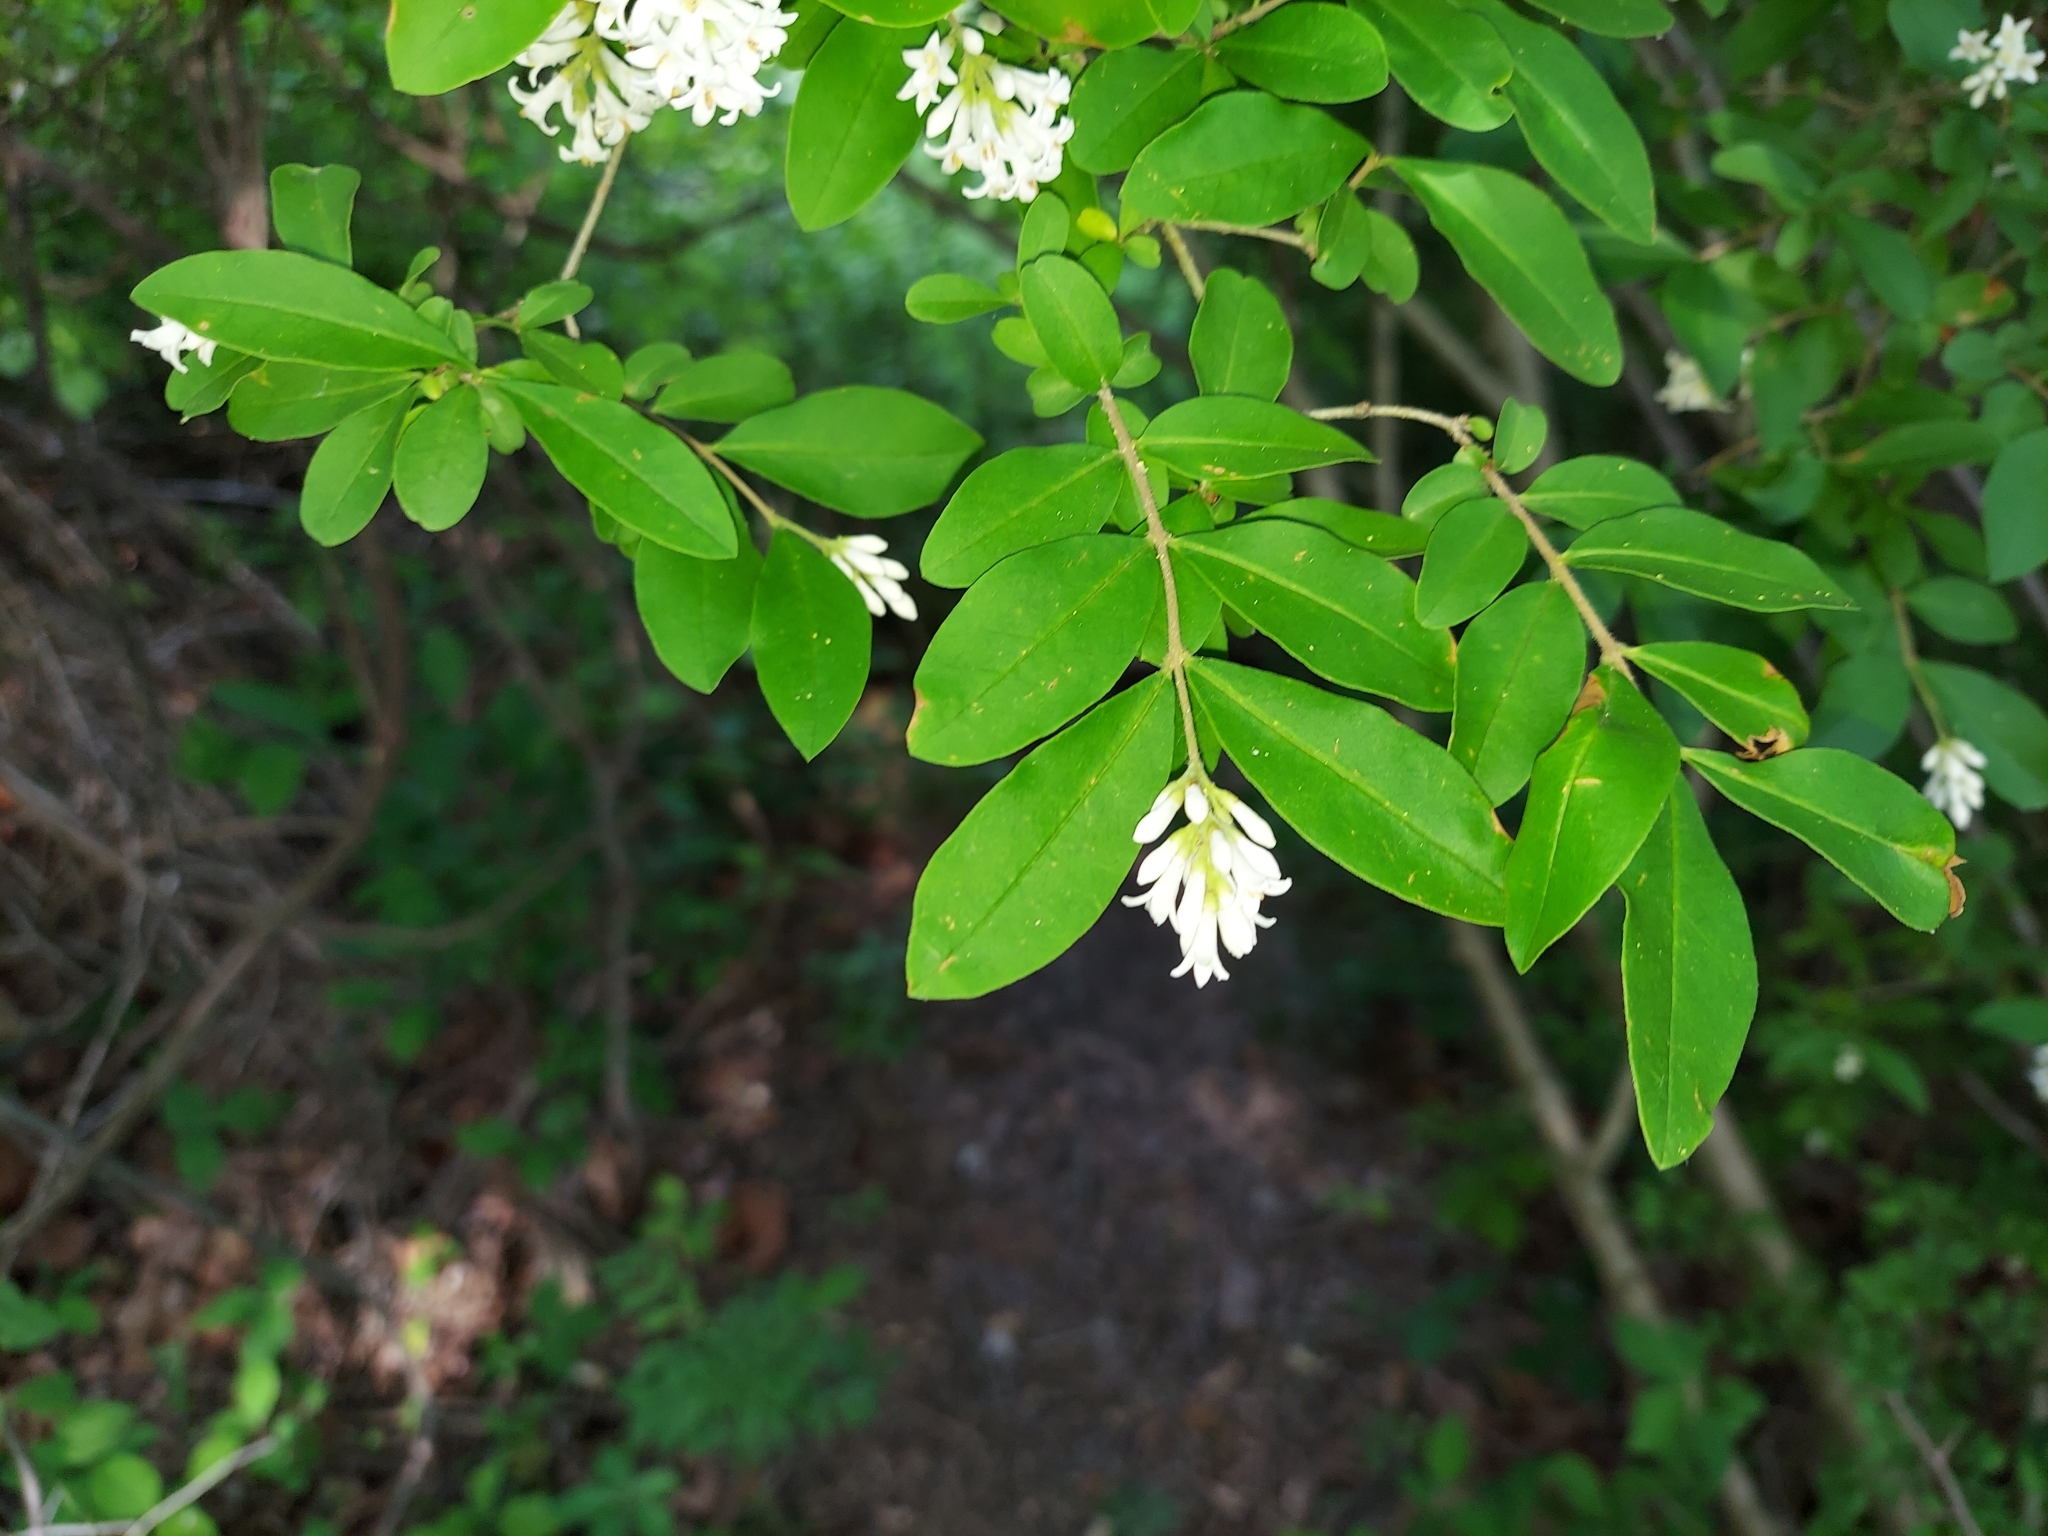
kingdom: Plantae
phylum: Tracheophyta
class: Magnoliopsida
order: Lamiales
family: Oleaceae
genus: Ligustrum
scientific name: Ligustrum obtusifolium
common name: Border privet
